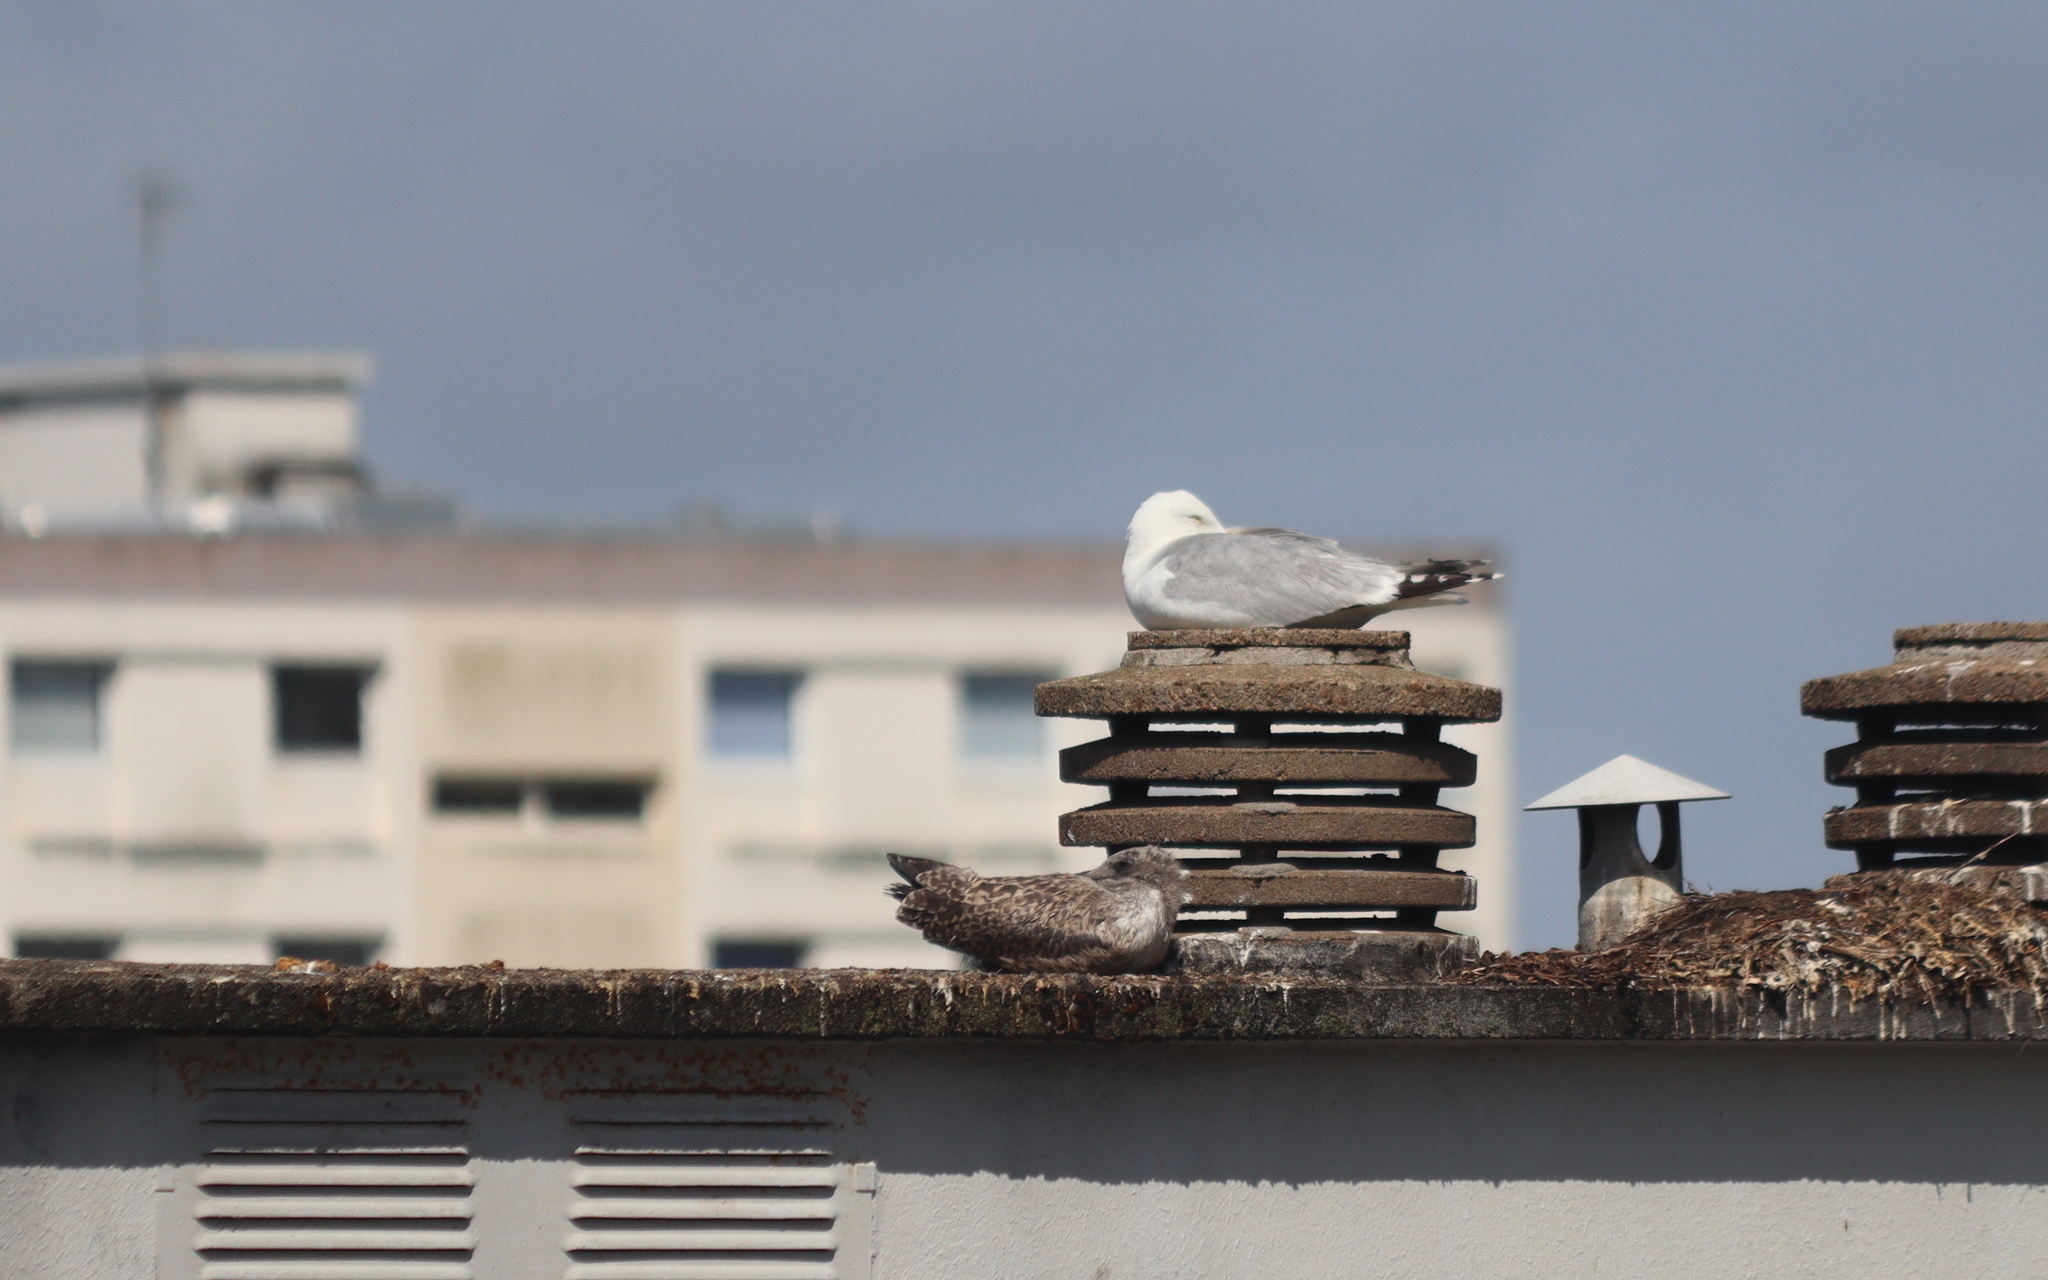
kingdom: Animalia
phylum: Chordata
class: Aves
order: Charadriiformes
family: Laridae
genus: Larus
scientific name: Larus argentatus
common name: Herring gull
